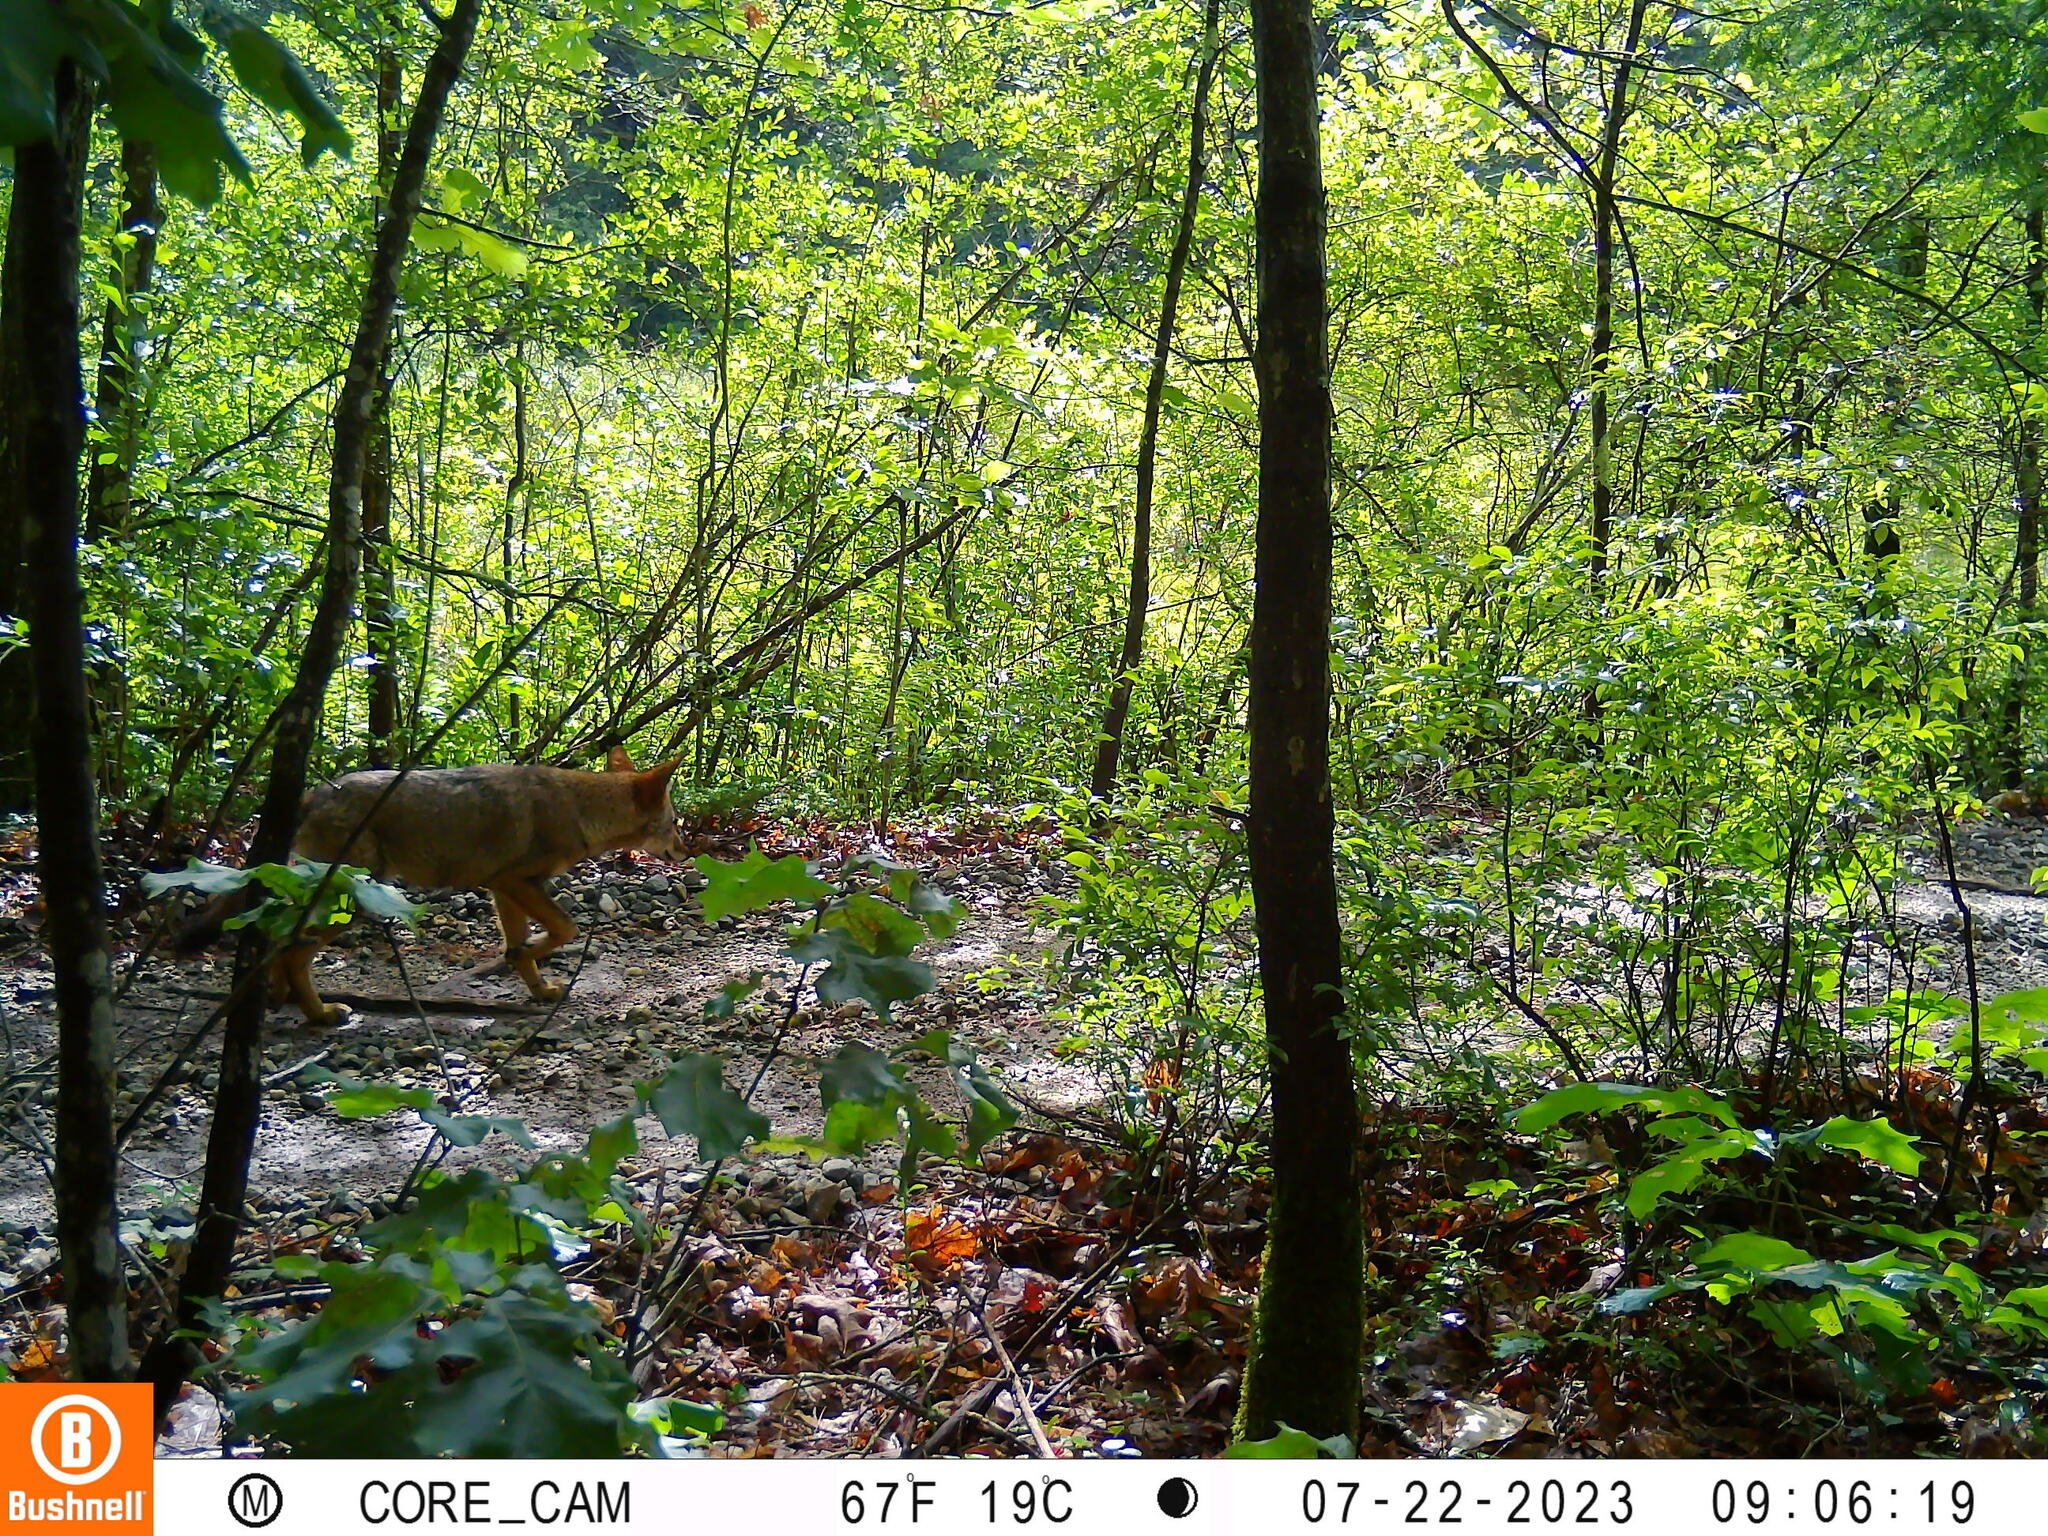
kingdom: Animalia
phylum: Chordata
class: Mammalia
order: Carnivora
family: Canidae
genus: Canis
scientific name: Canis latrans
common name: Coyote
